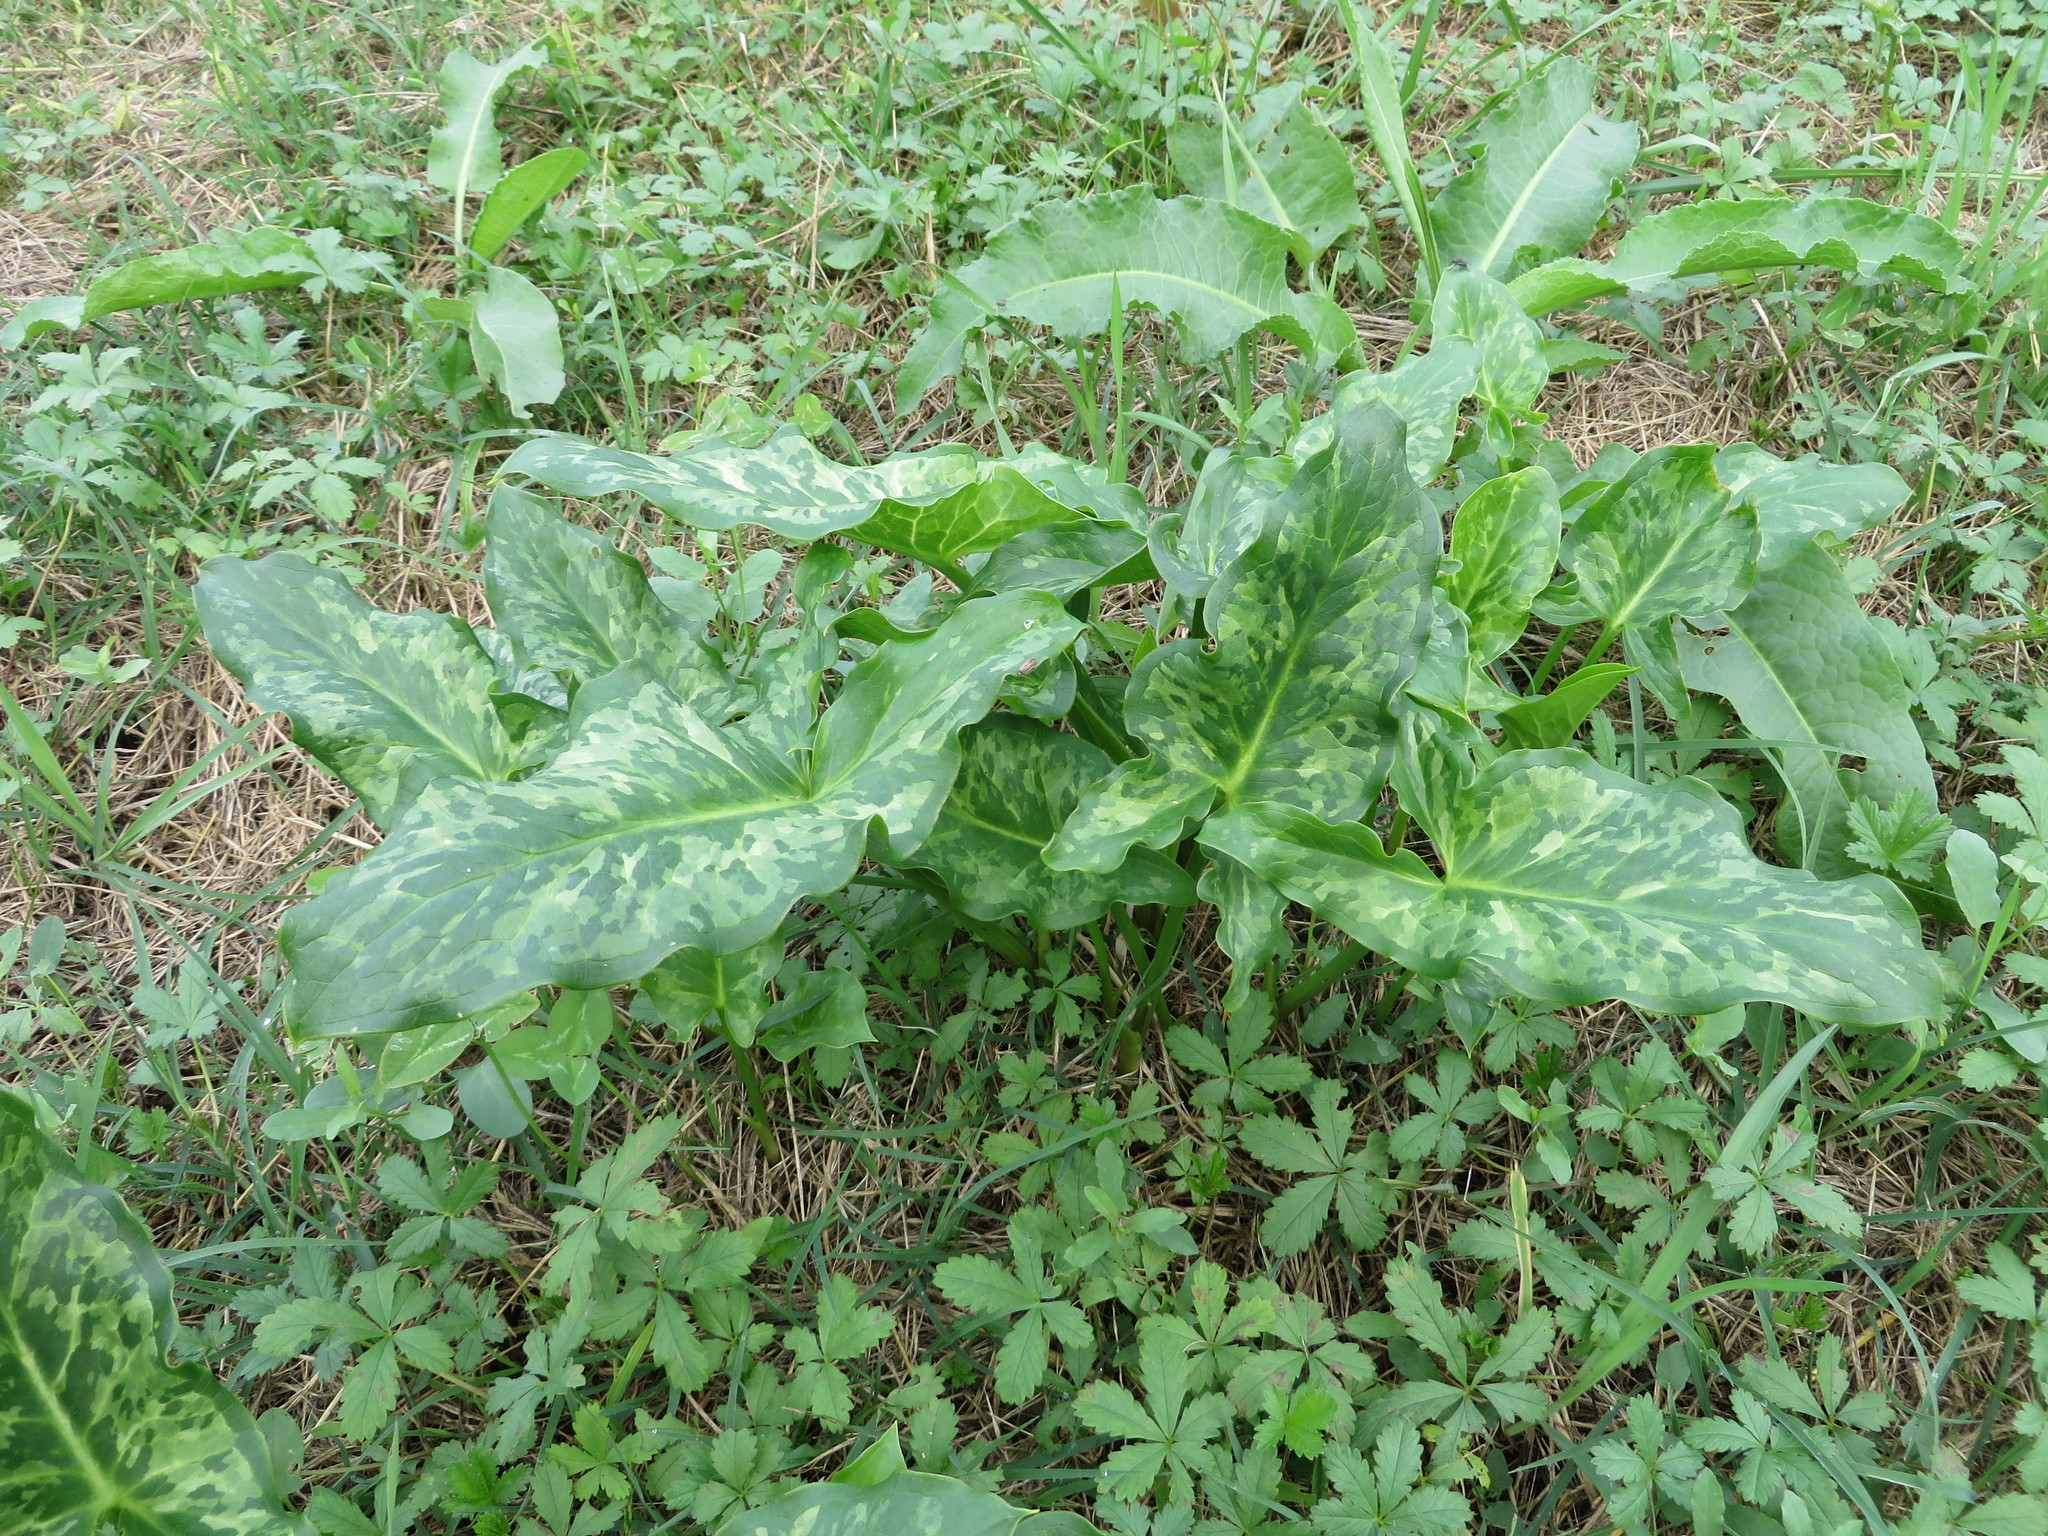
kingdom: Plantae
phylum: Tracheophyta
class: Liliopsida
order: Alismatales
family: Araceae
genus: Arum
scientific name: Arum italicum
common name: Italian lords-and-ladies
